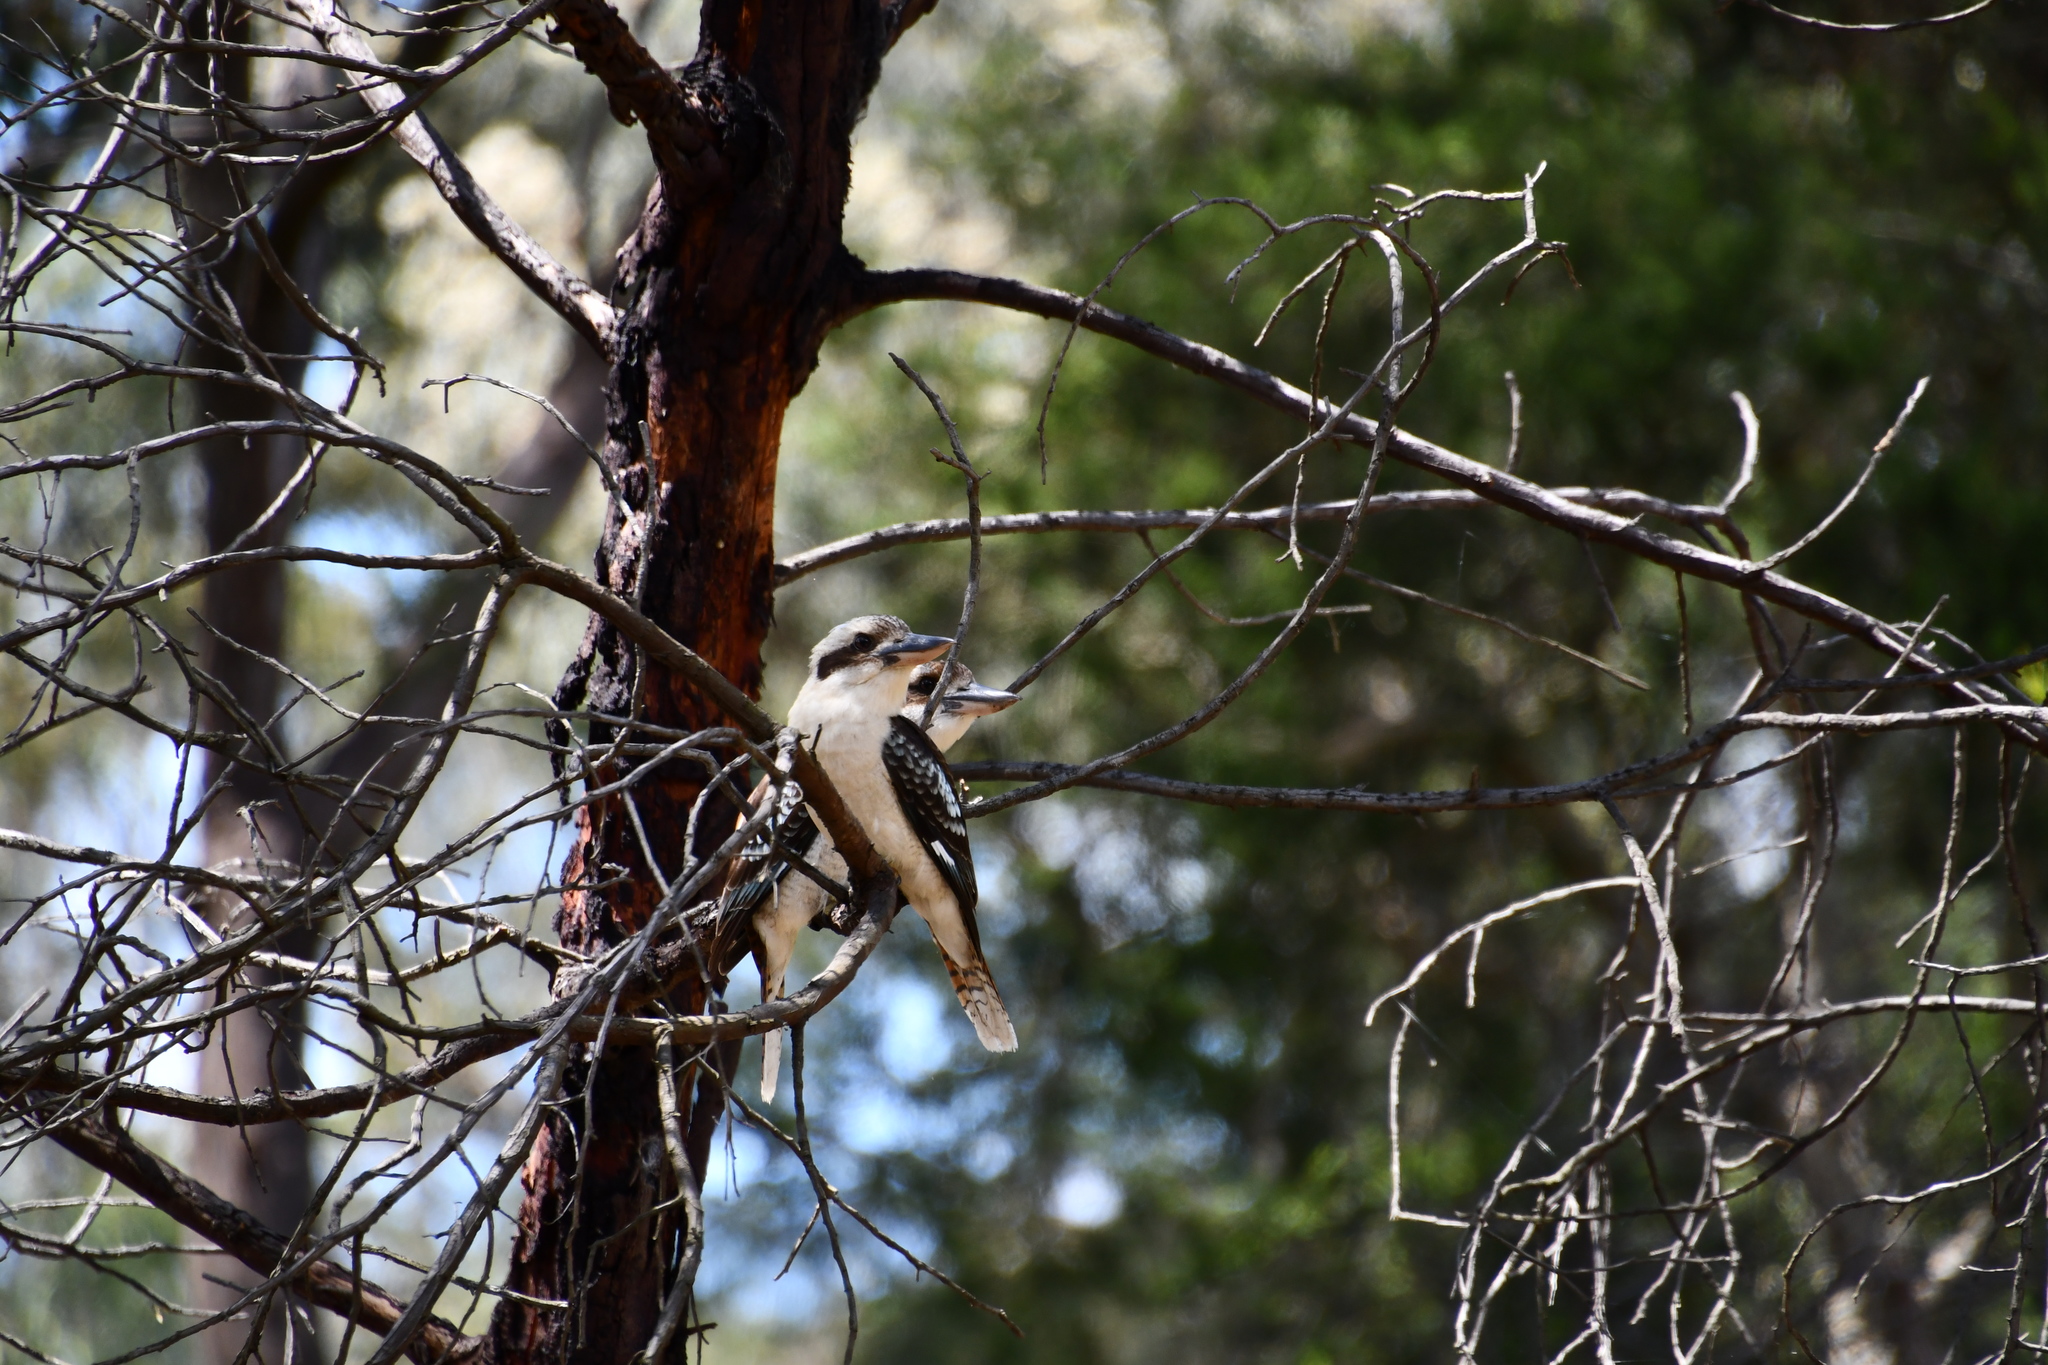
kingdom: Animalia
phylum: Chordata
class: Aves
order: Coraciiformes
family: Alcedinidae
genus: Dacelo
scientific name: Dacelo novaeguineae
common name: Laughing kookaburra
